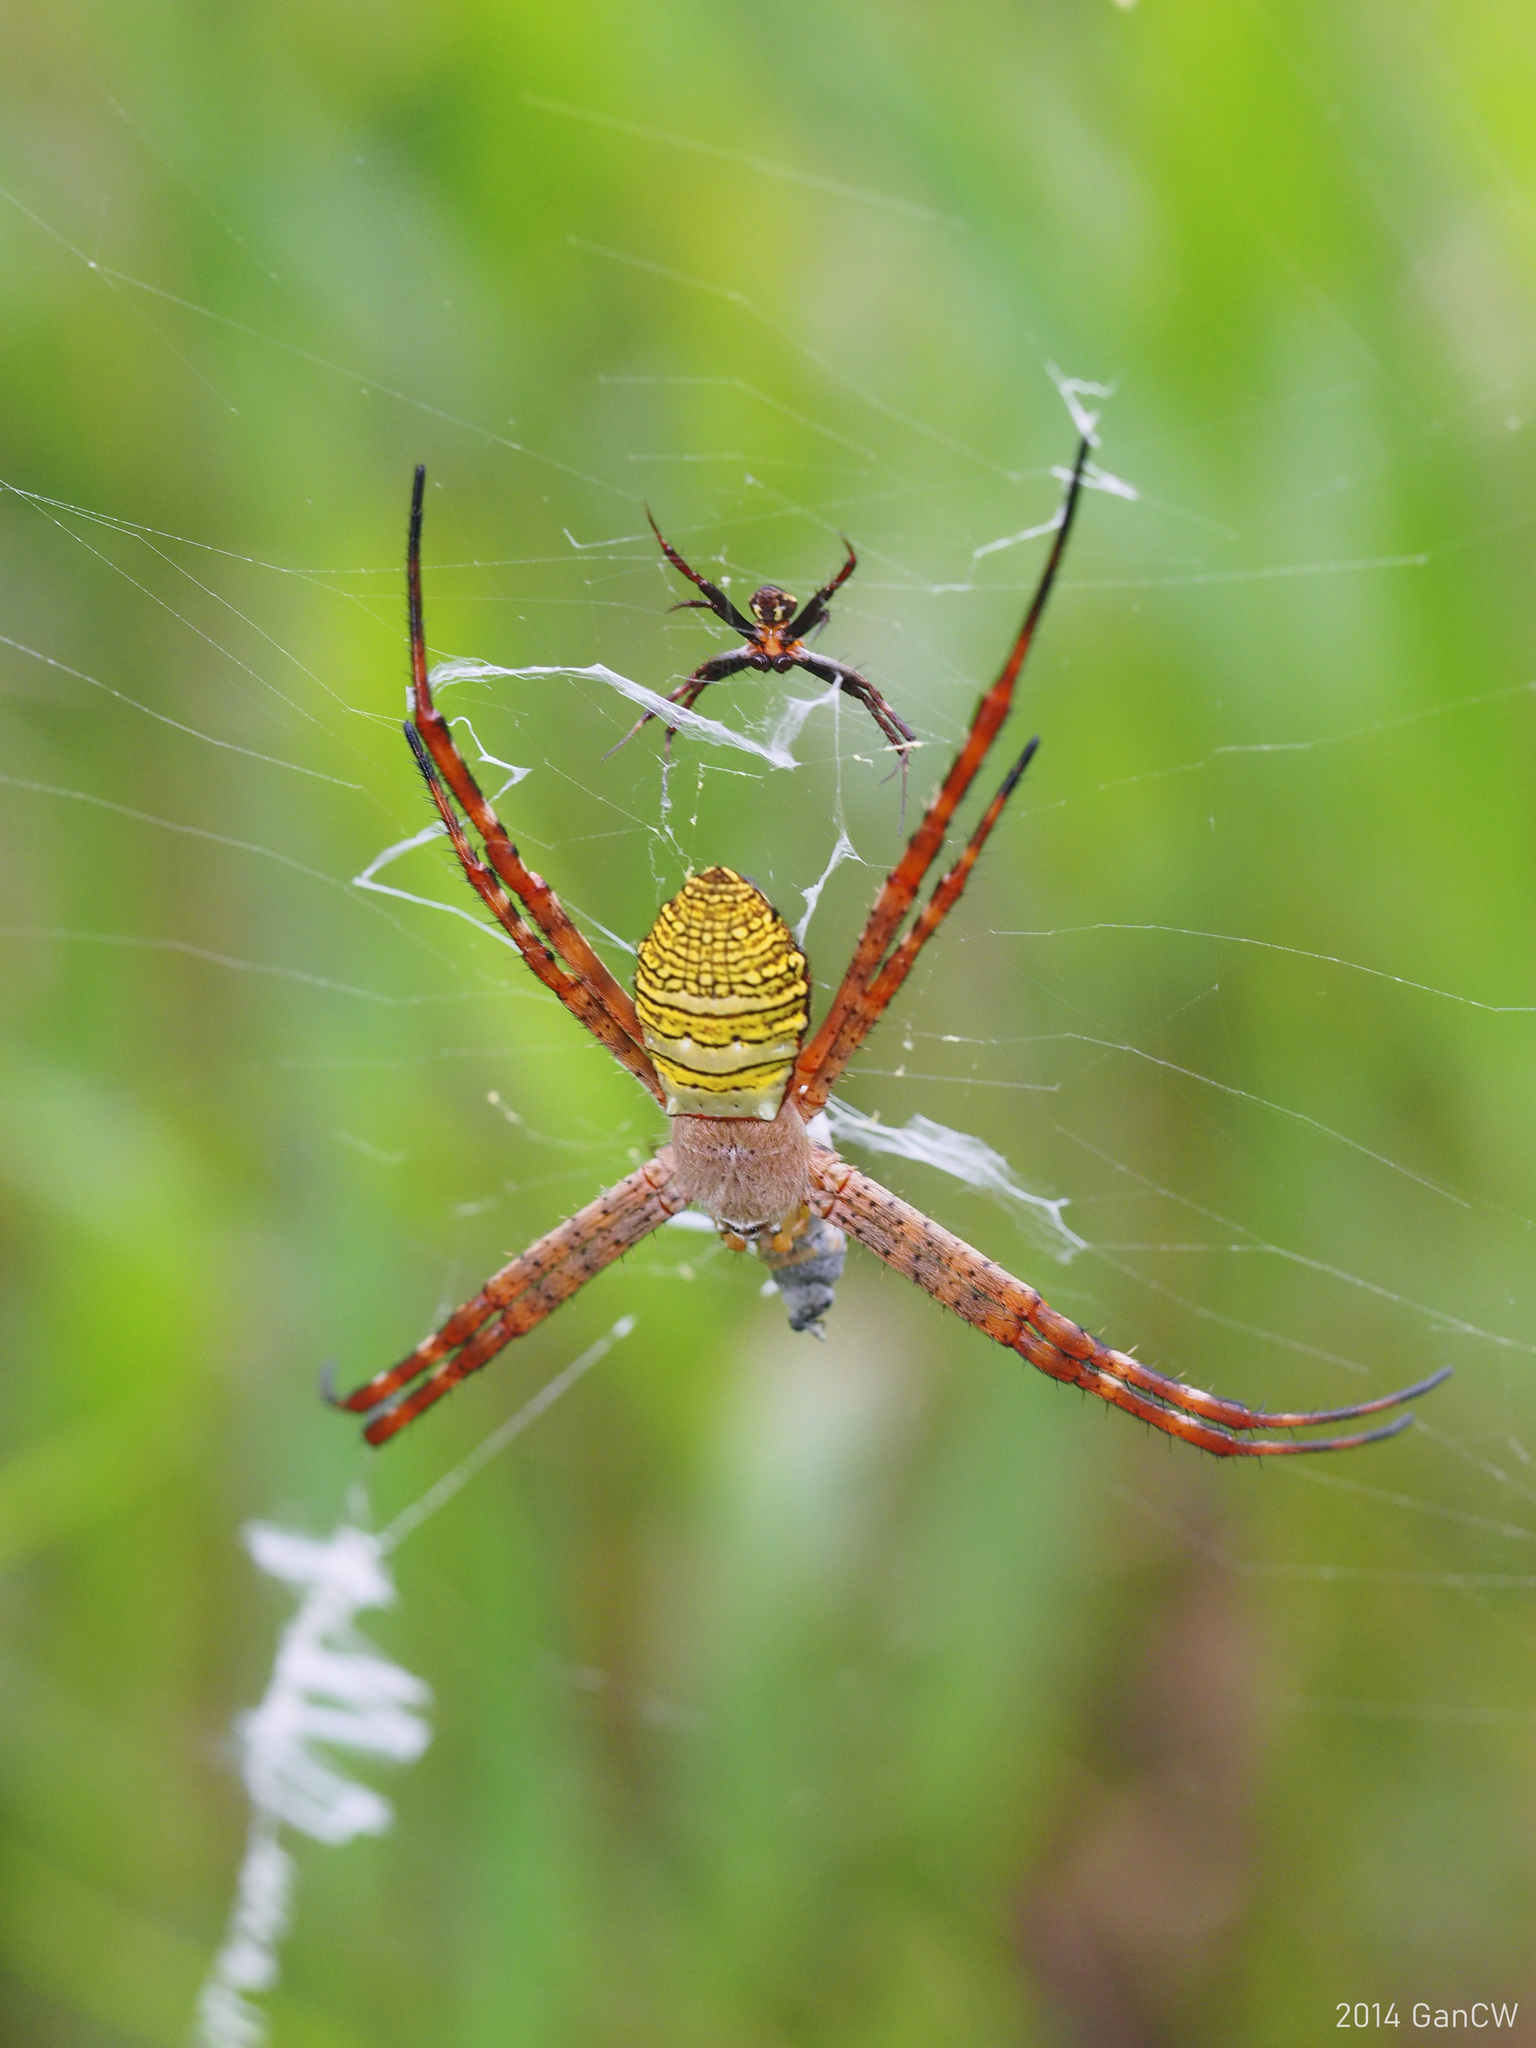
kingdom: Animalia
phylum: Arthropoda
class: Arachnida
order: Araneae
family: Araneidae
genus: Argiope
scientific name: Argiope aemula
